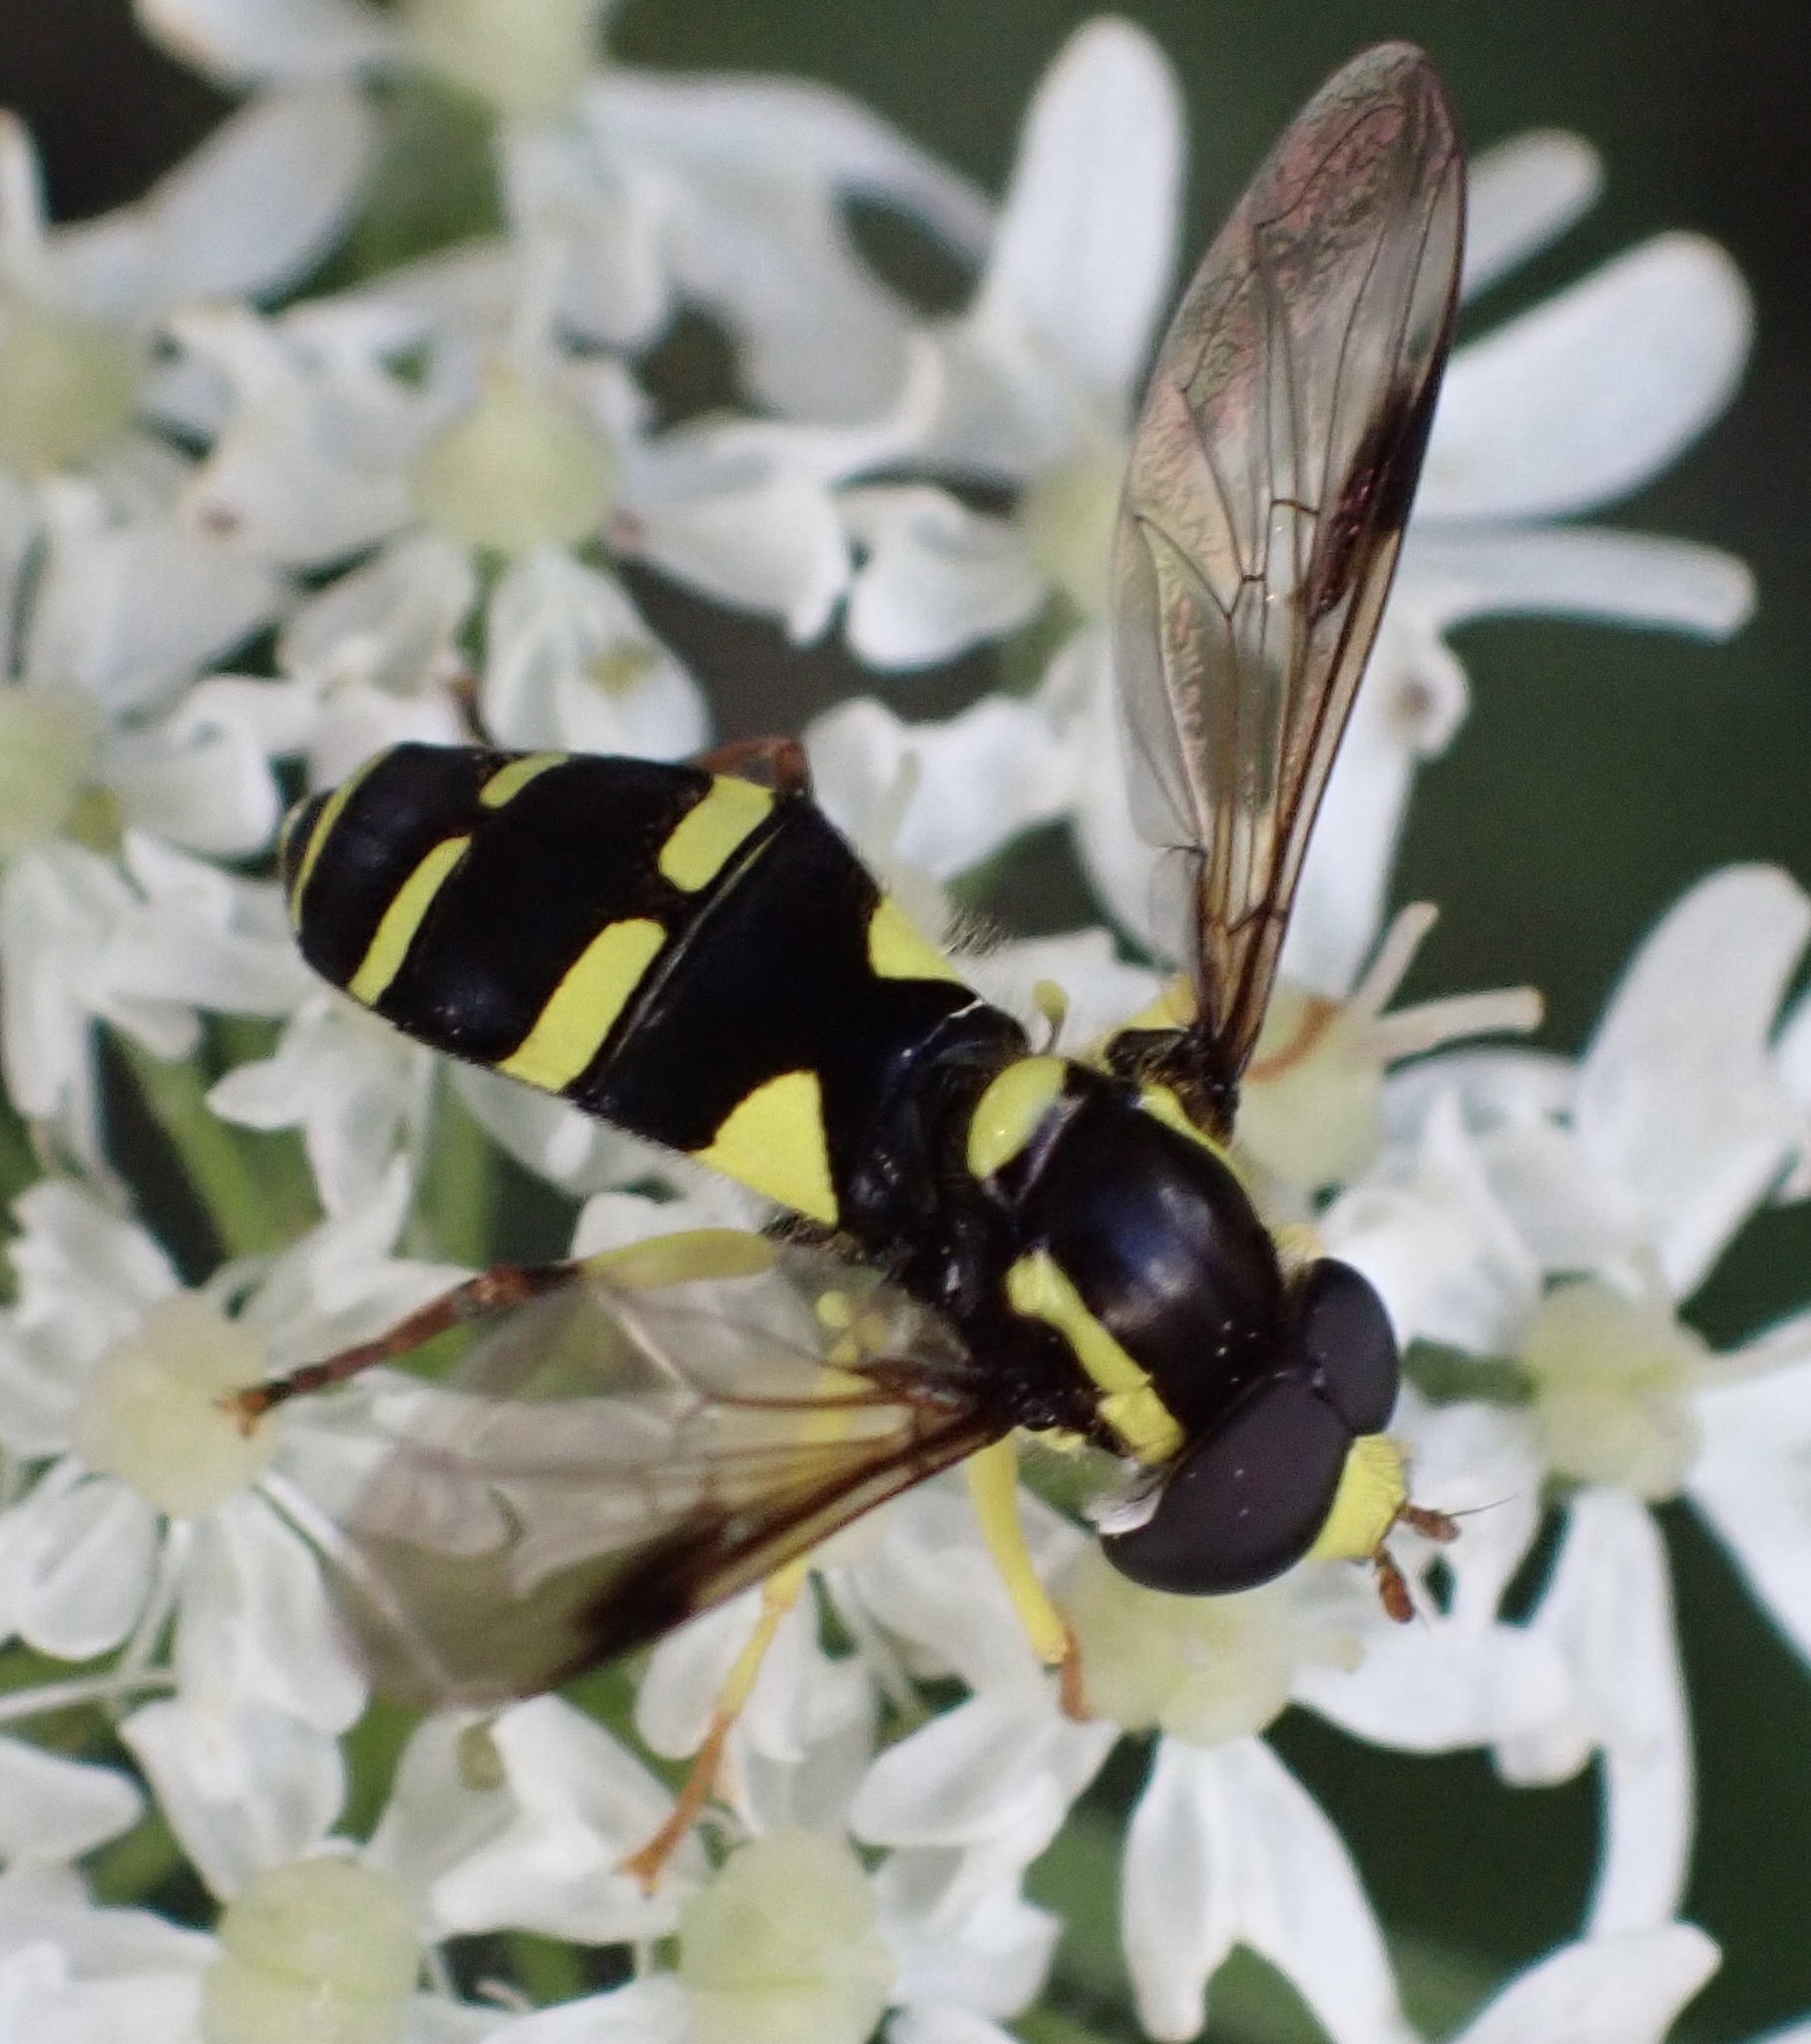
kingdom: Animalia
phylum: Arthropoda
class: Insecta
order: Diptera
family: Syrphidae
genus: Philhelius
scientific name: Philhelius pedissequum
